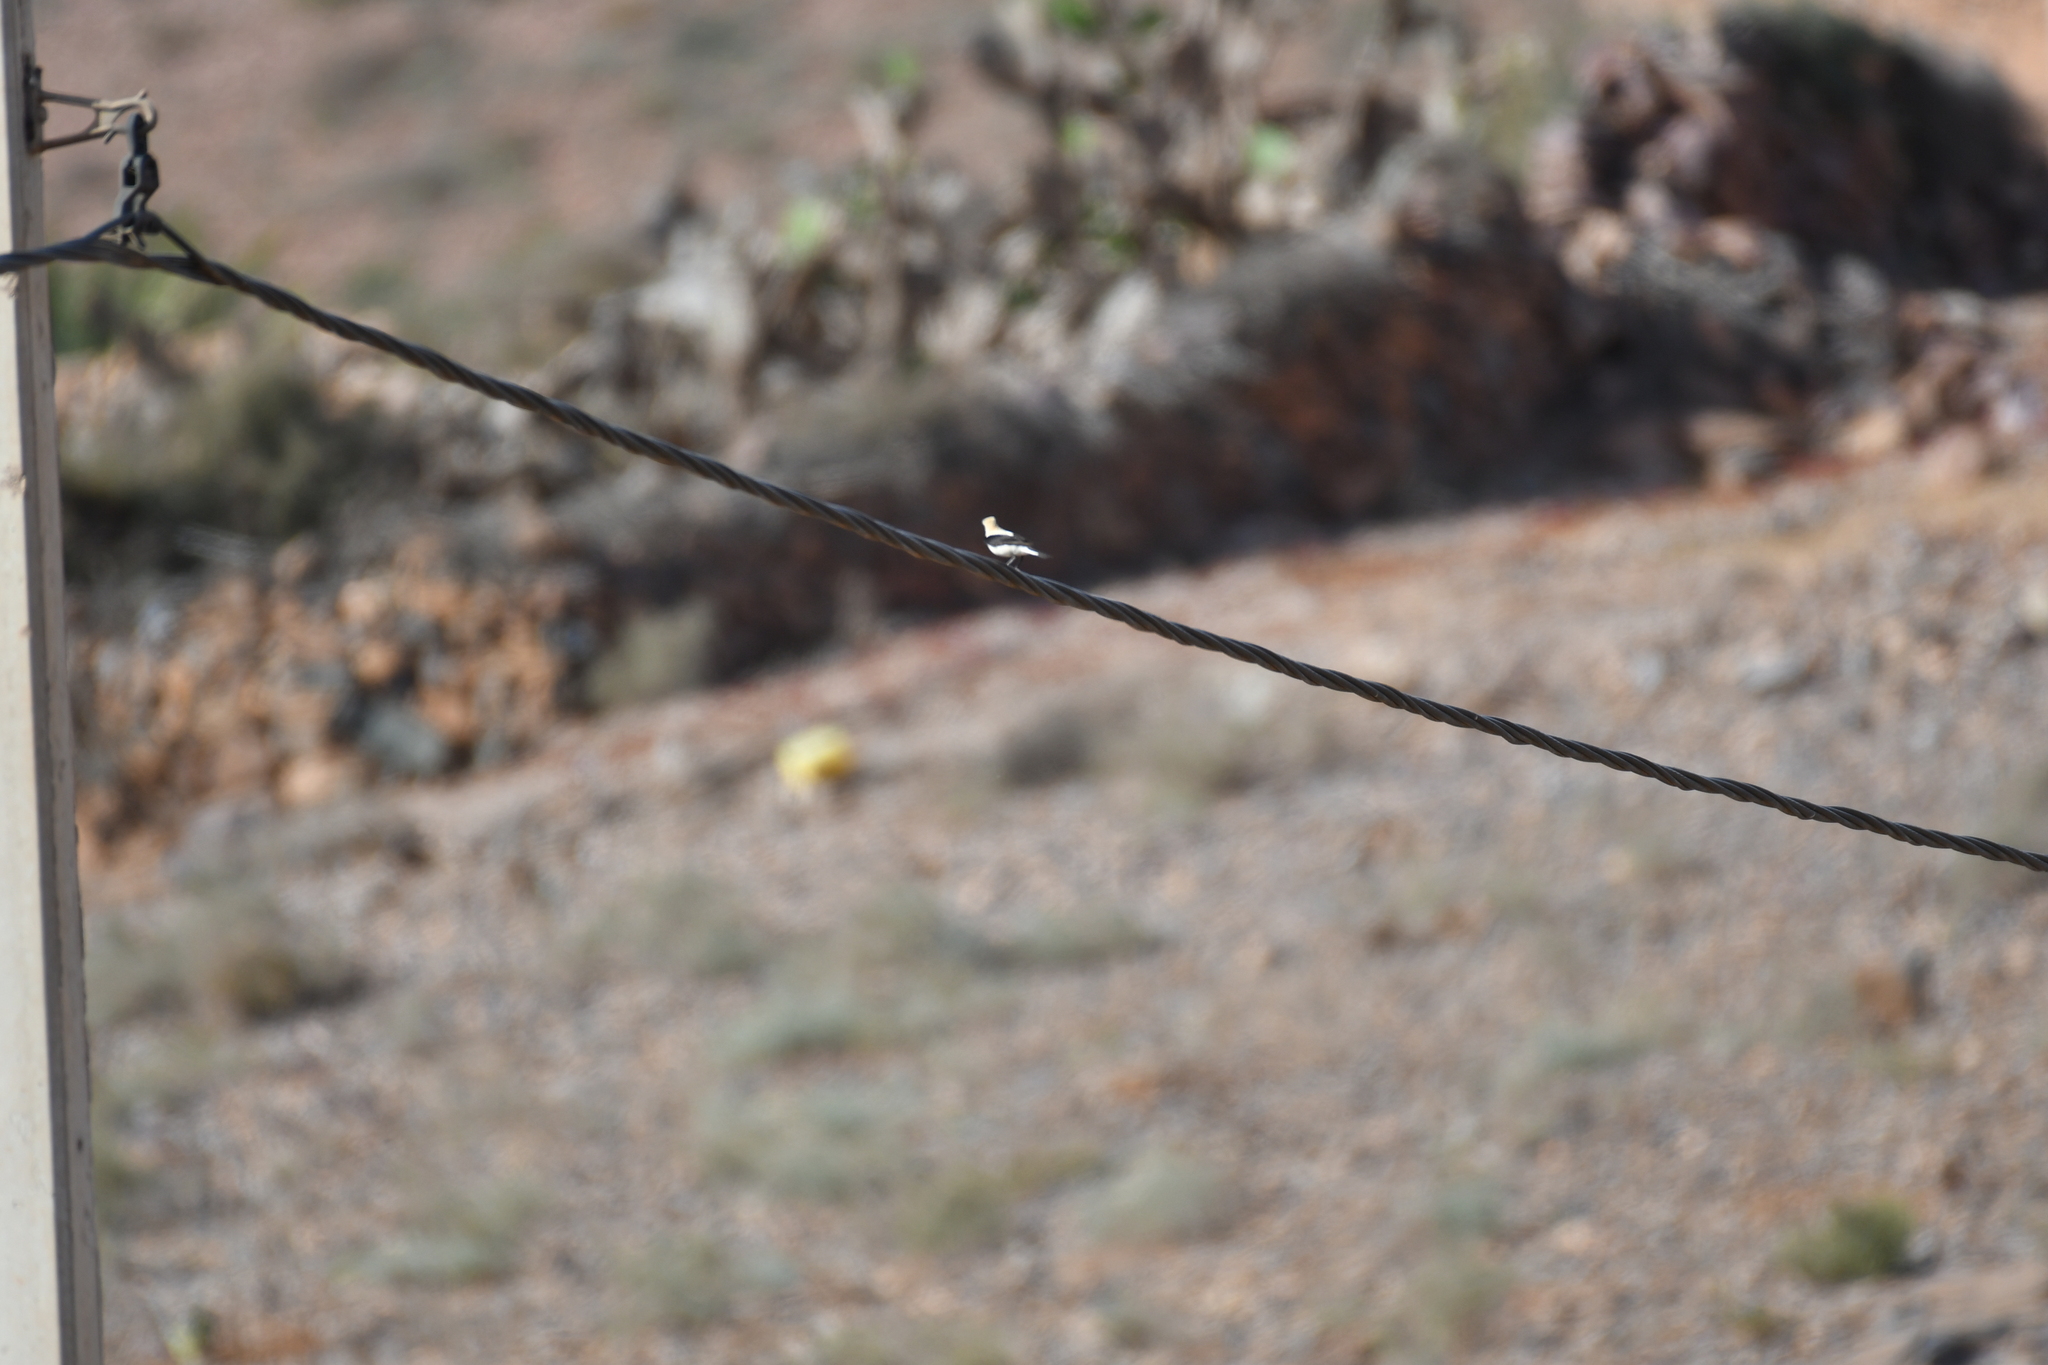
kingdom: Animalia
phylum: Chordata
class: Aves
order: Passeriformes
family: Muscicapidae
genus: Oenanthe
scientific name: Oenanthe deserti
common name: Desert wheatear
